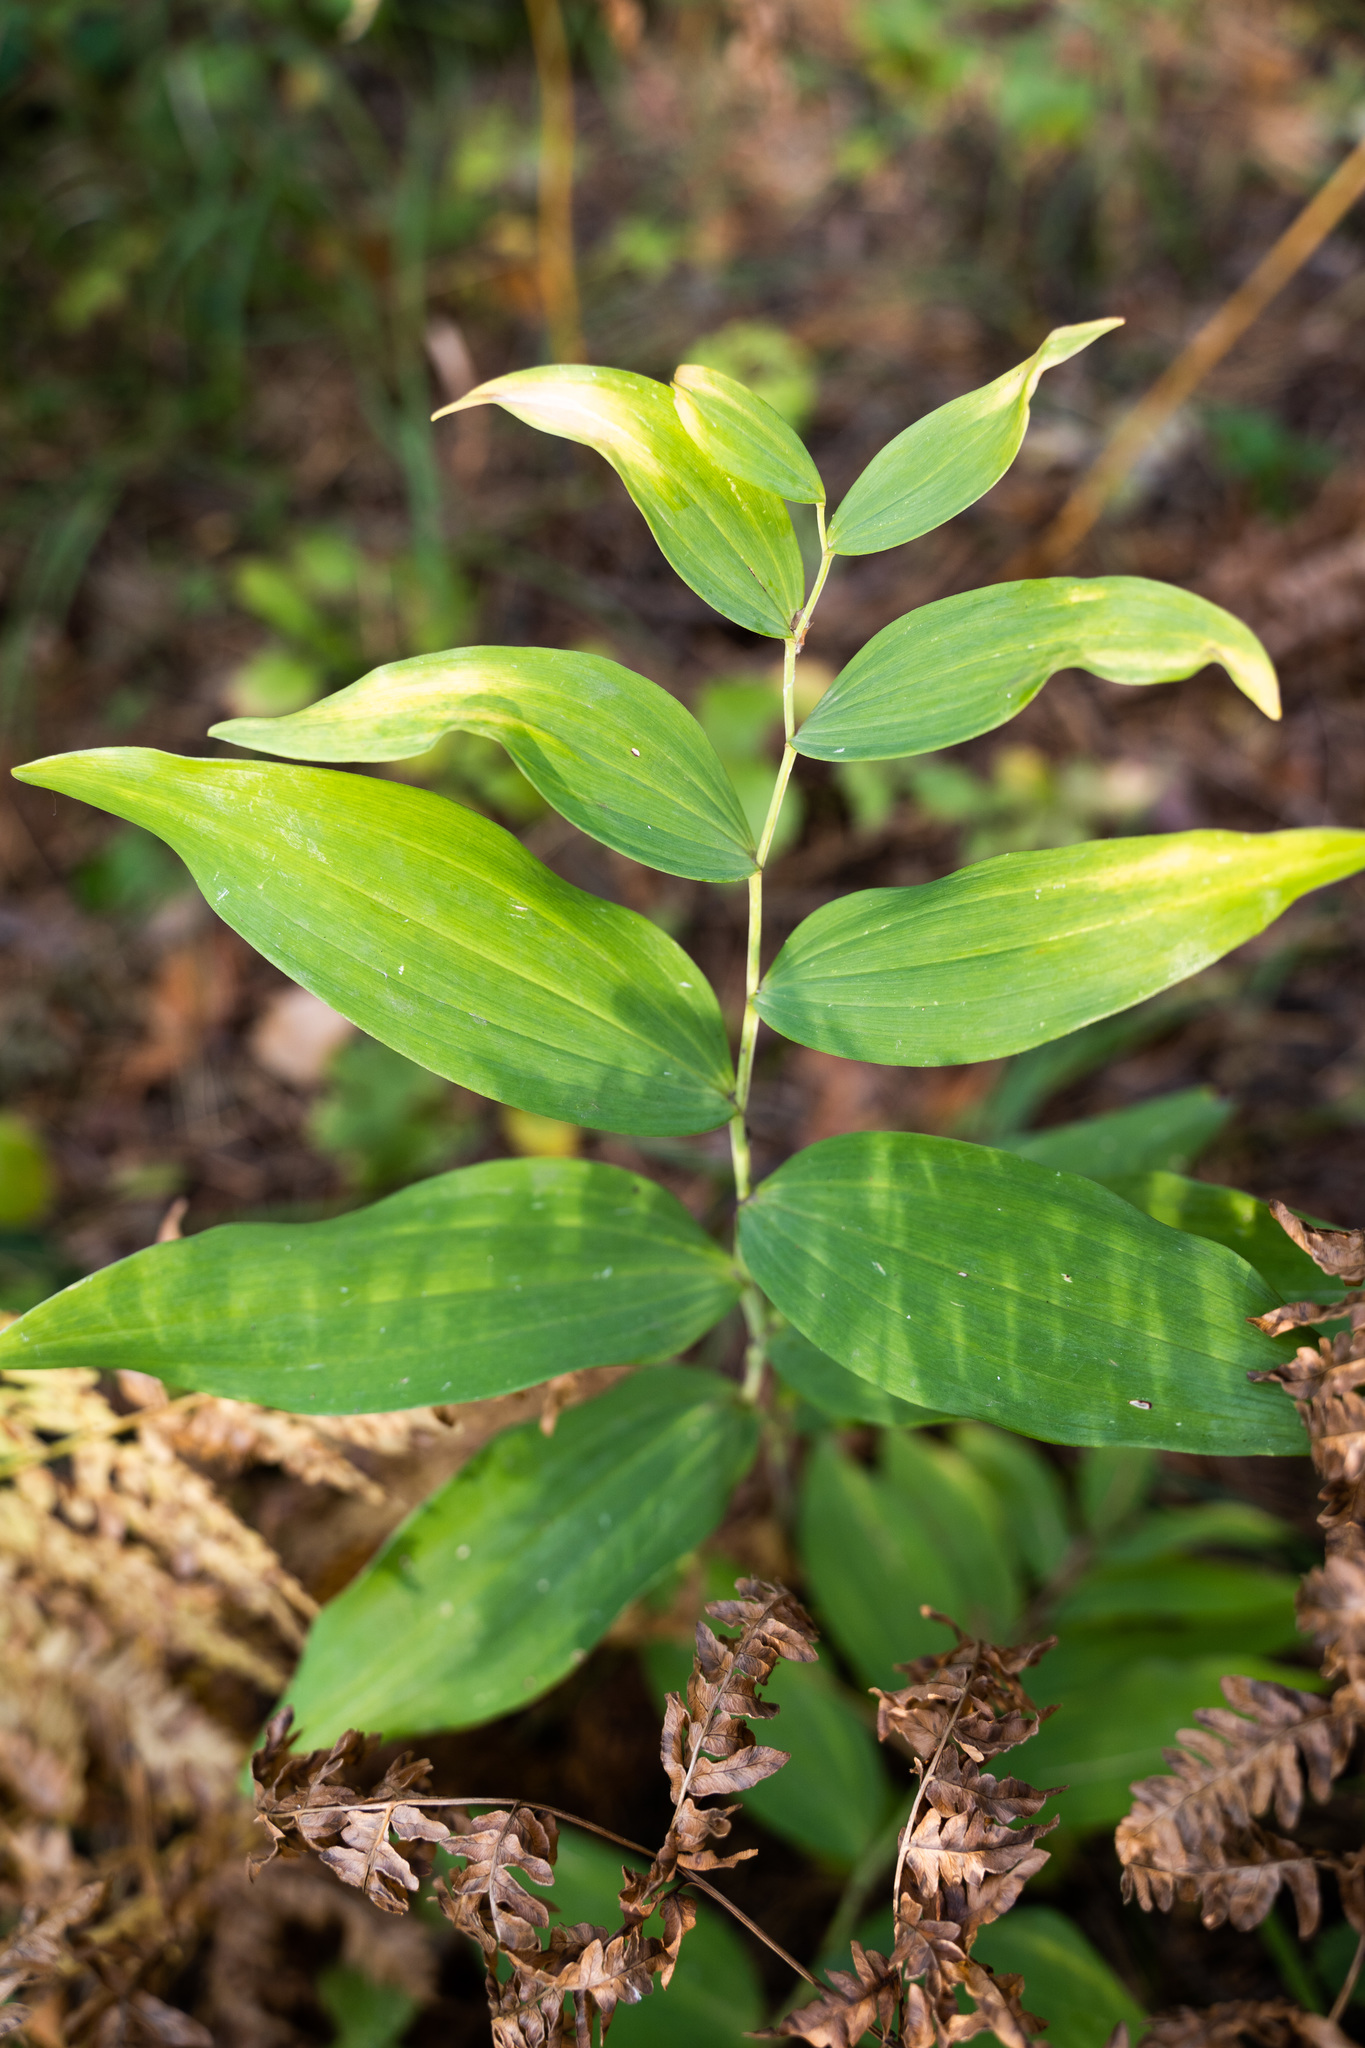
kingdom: Plantae
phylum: Tracheophyta
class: Liliopsida
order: Asparagales
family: Asparagaceae
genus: Polygonatum
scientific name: Polygonatum odoratum
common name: Angular solomon's-seal
